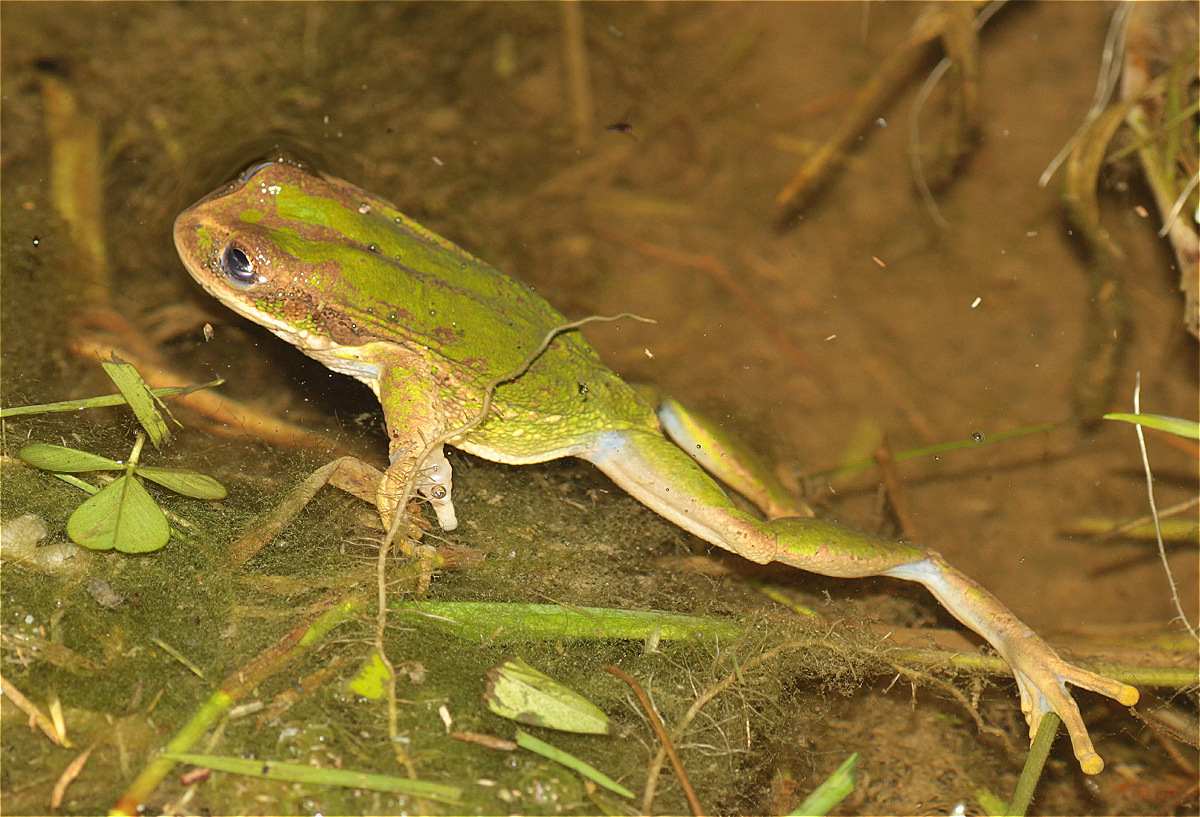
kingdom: Animalia
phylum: Chordata
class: Amphibia
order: Anura
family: Hemiphractidae
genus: Gastrotheca
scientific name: Gastrotheca cuencana
